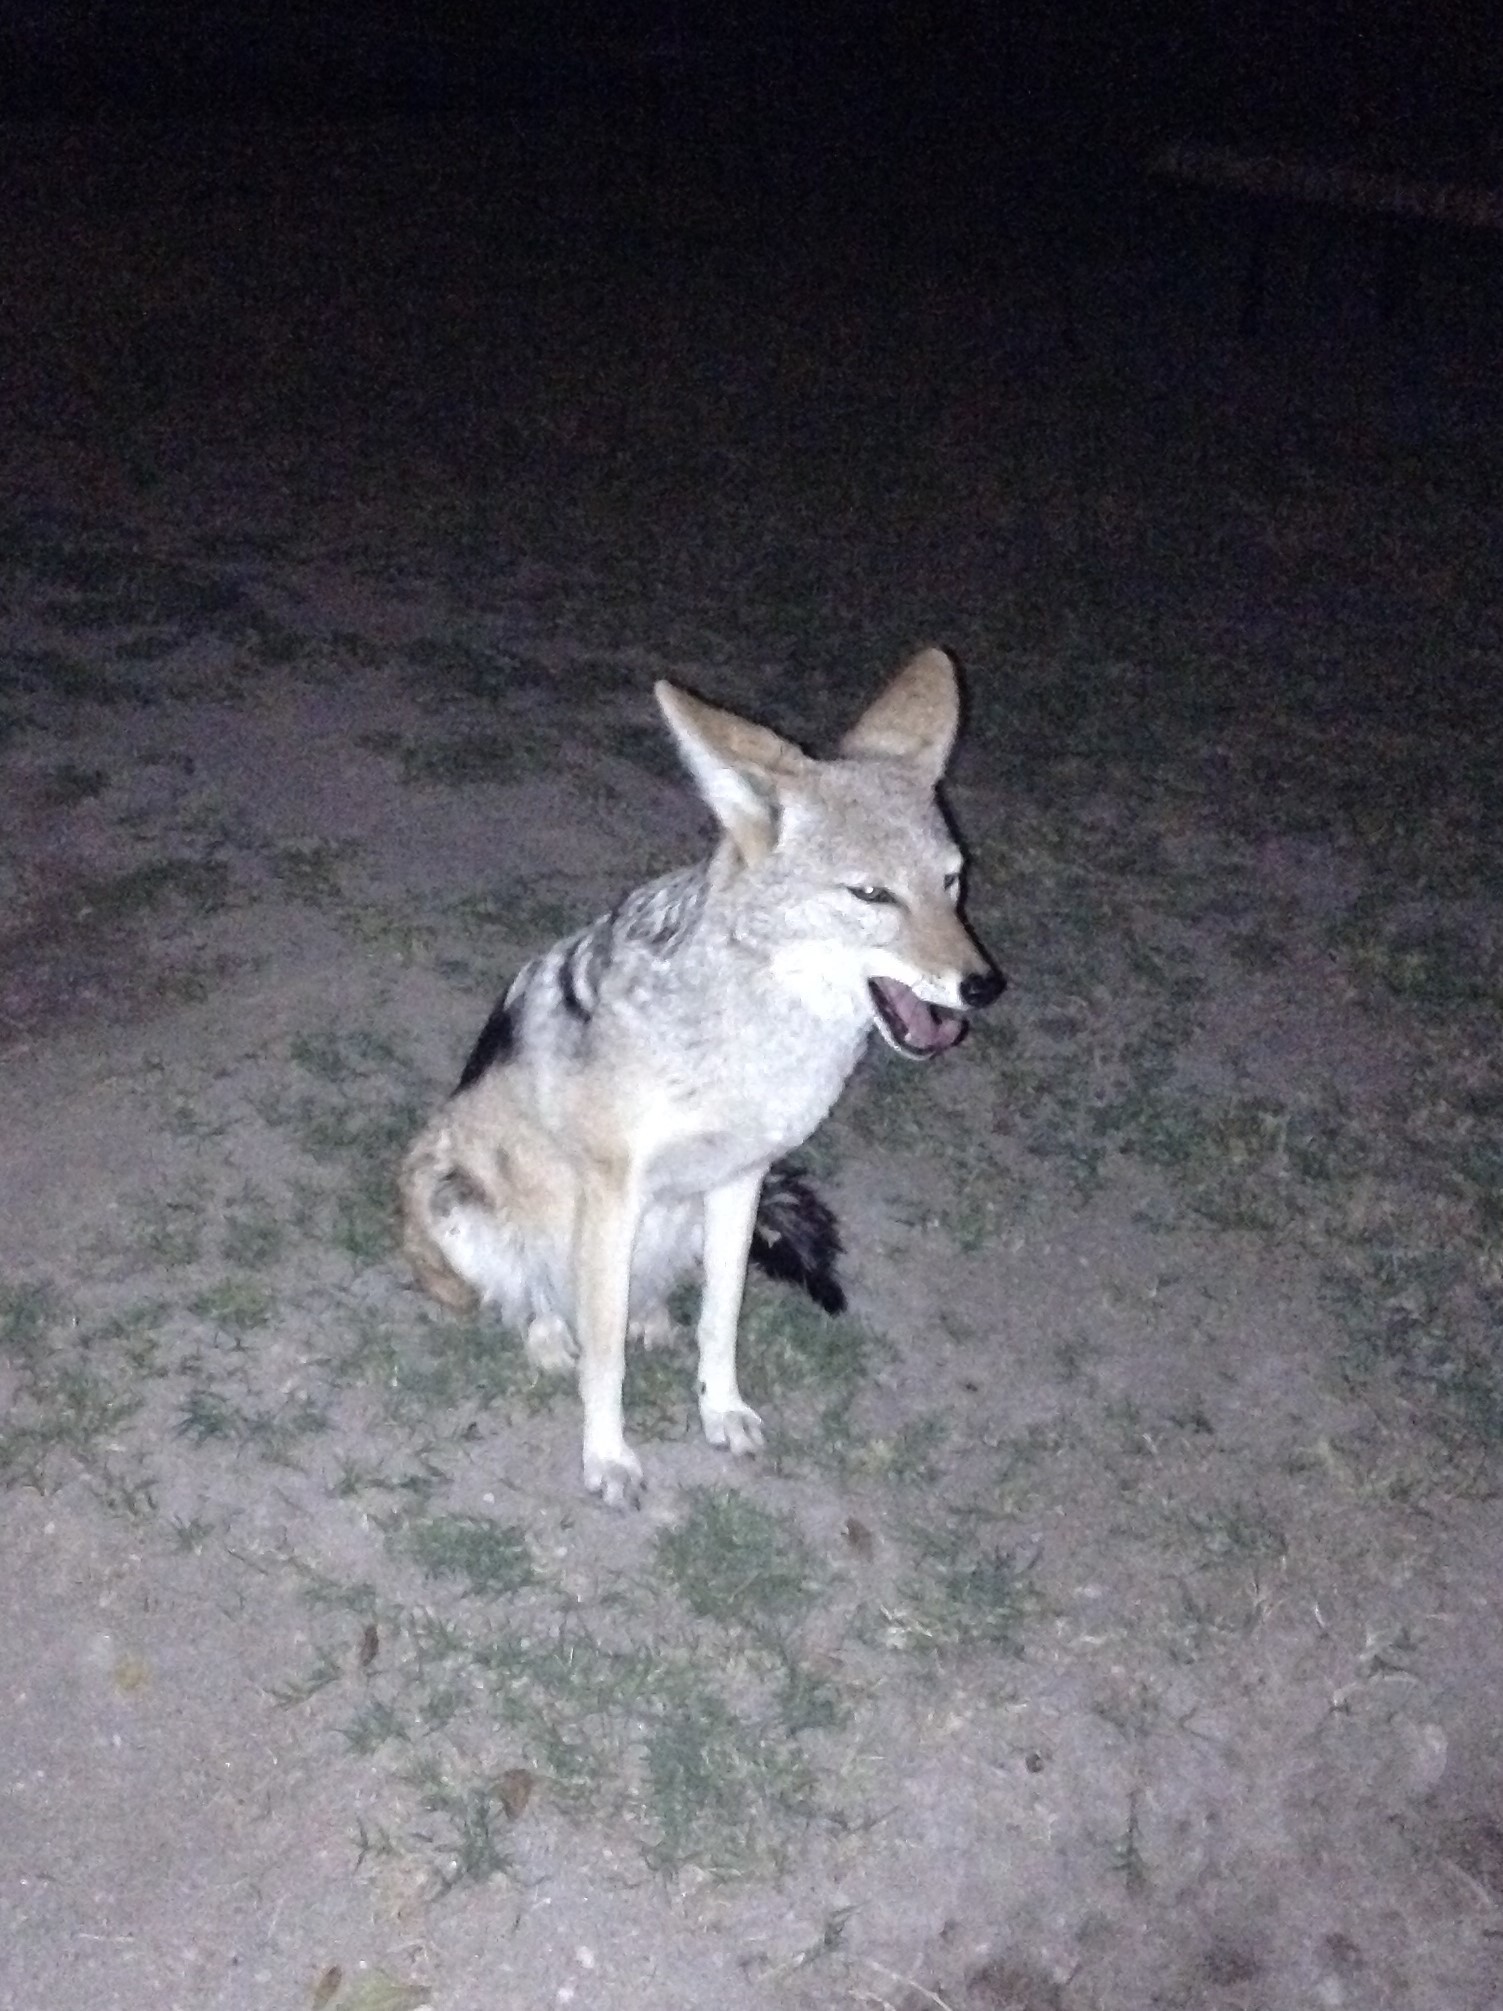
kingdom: Animalia
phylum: Chordata
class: Mammalia
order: Carnivora
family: Canidae
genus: Lupulella
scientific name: Lupulella
